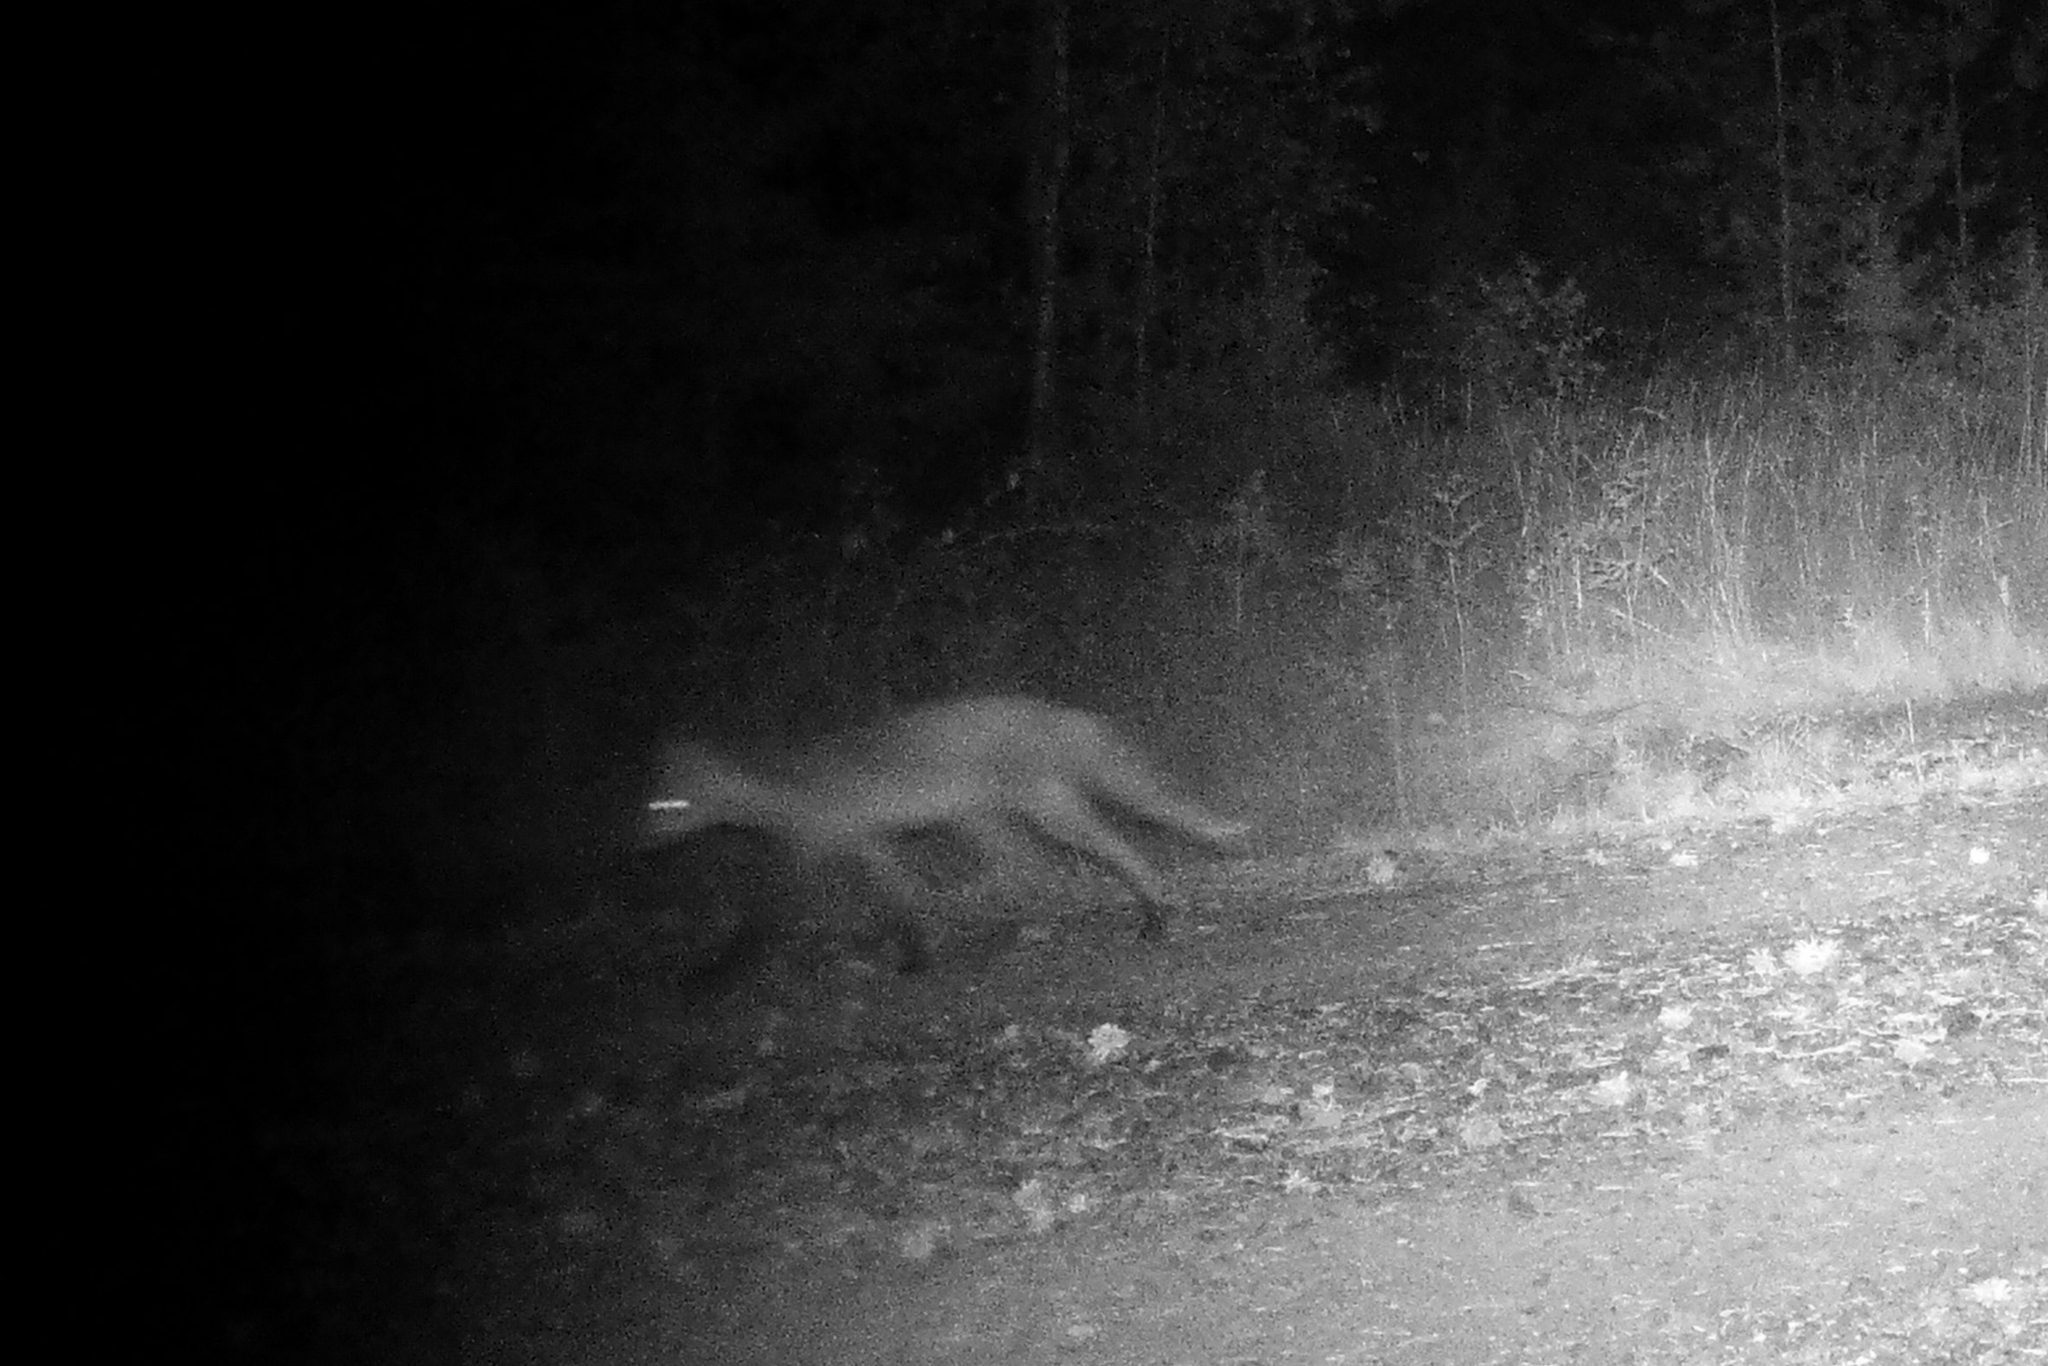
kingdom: Animalia
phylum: Chordata
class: Mammalia
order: Carnivora
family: Canidae
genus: Vulpes
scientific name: Vulpes vulpes
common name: Red fox
